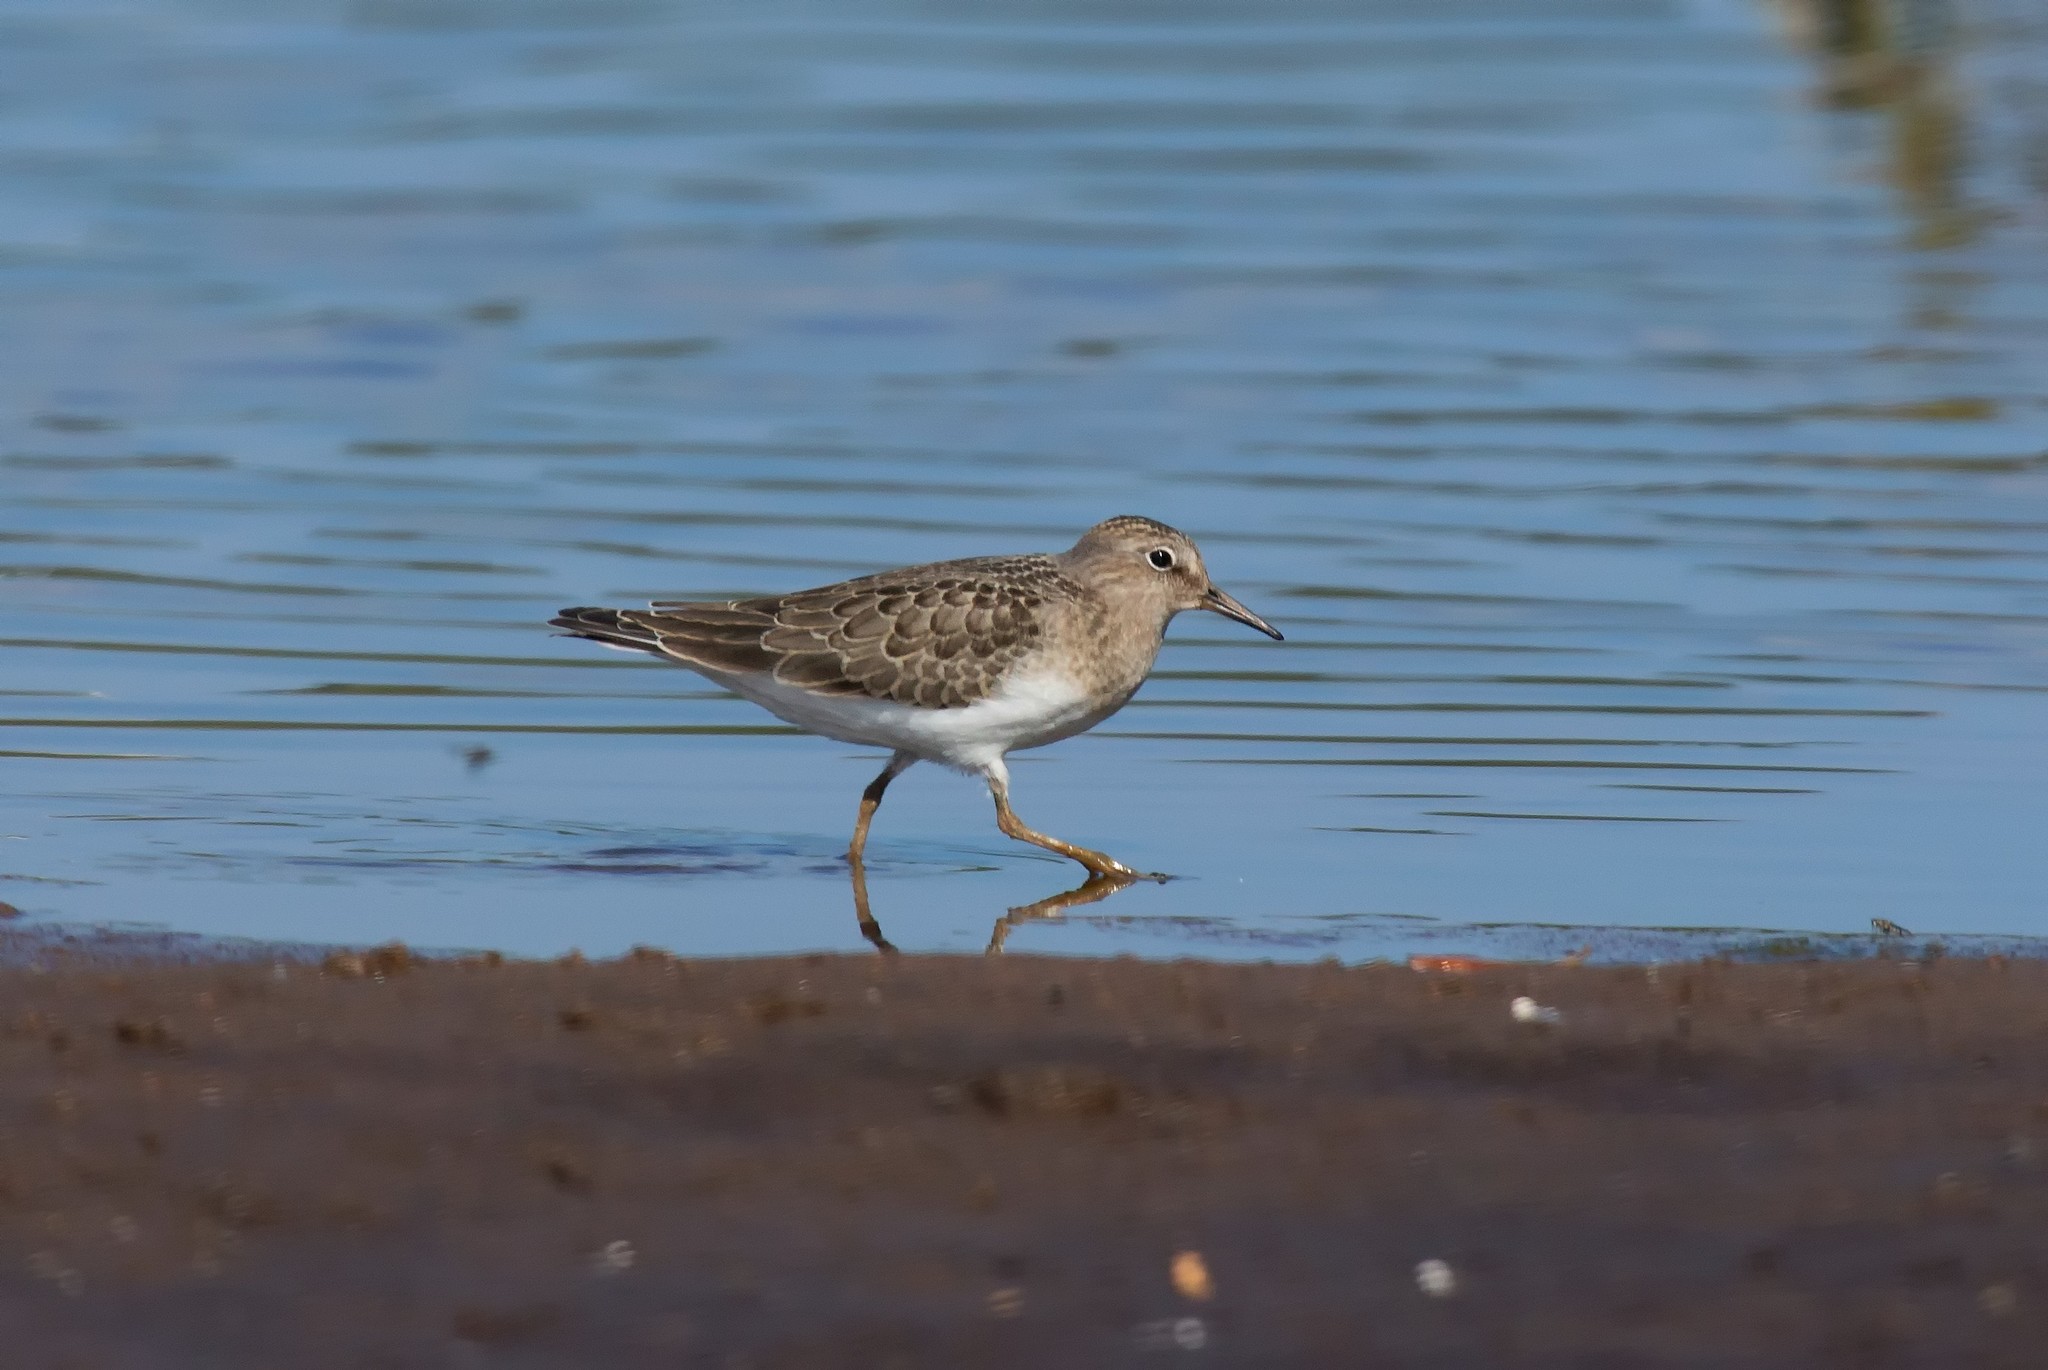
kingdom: Animalia
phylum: Chordata
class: Aves
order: Charadriiformes
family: Scolopacidae
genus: Calidris
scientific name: Calidris temminckii
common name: Temminck's stint
